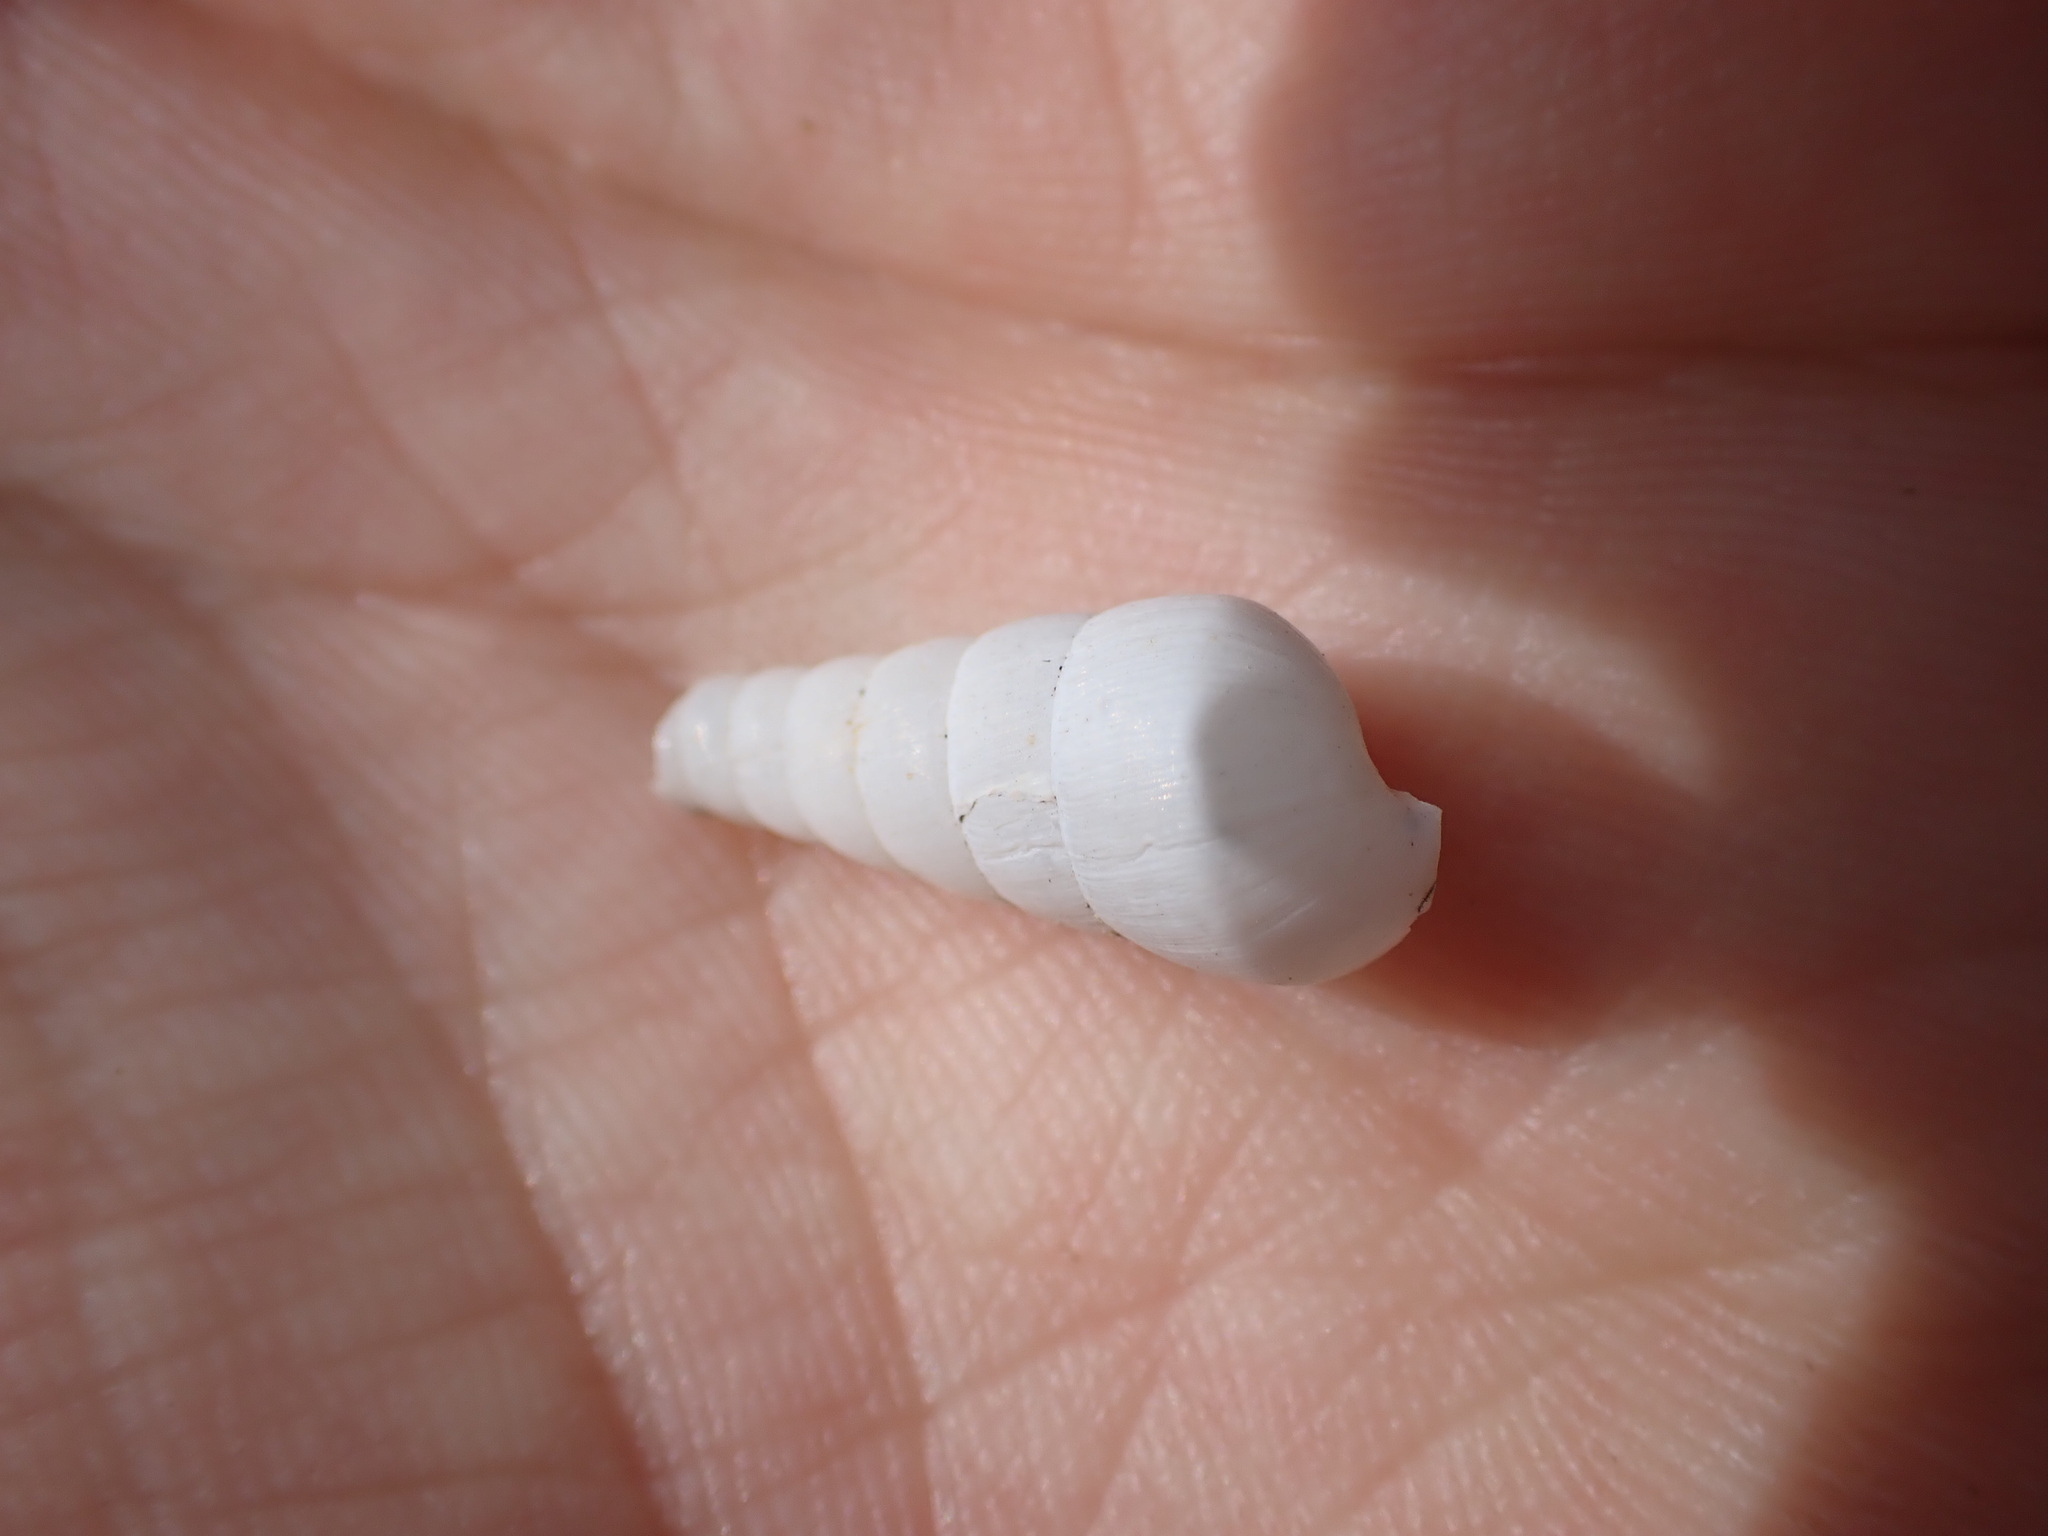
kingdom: Animalia
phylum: Mollusca
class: Gastropoda
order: Stylommatophora
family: Achatinidae
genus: Rumina
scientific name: Rumina decollata
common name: Decollate snail
